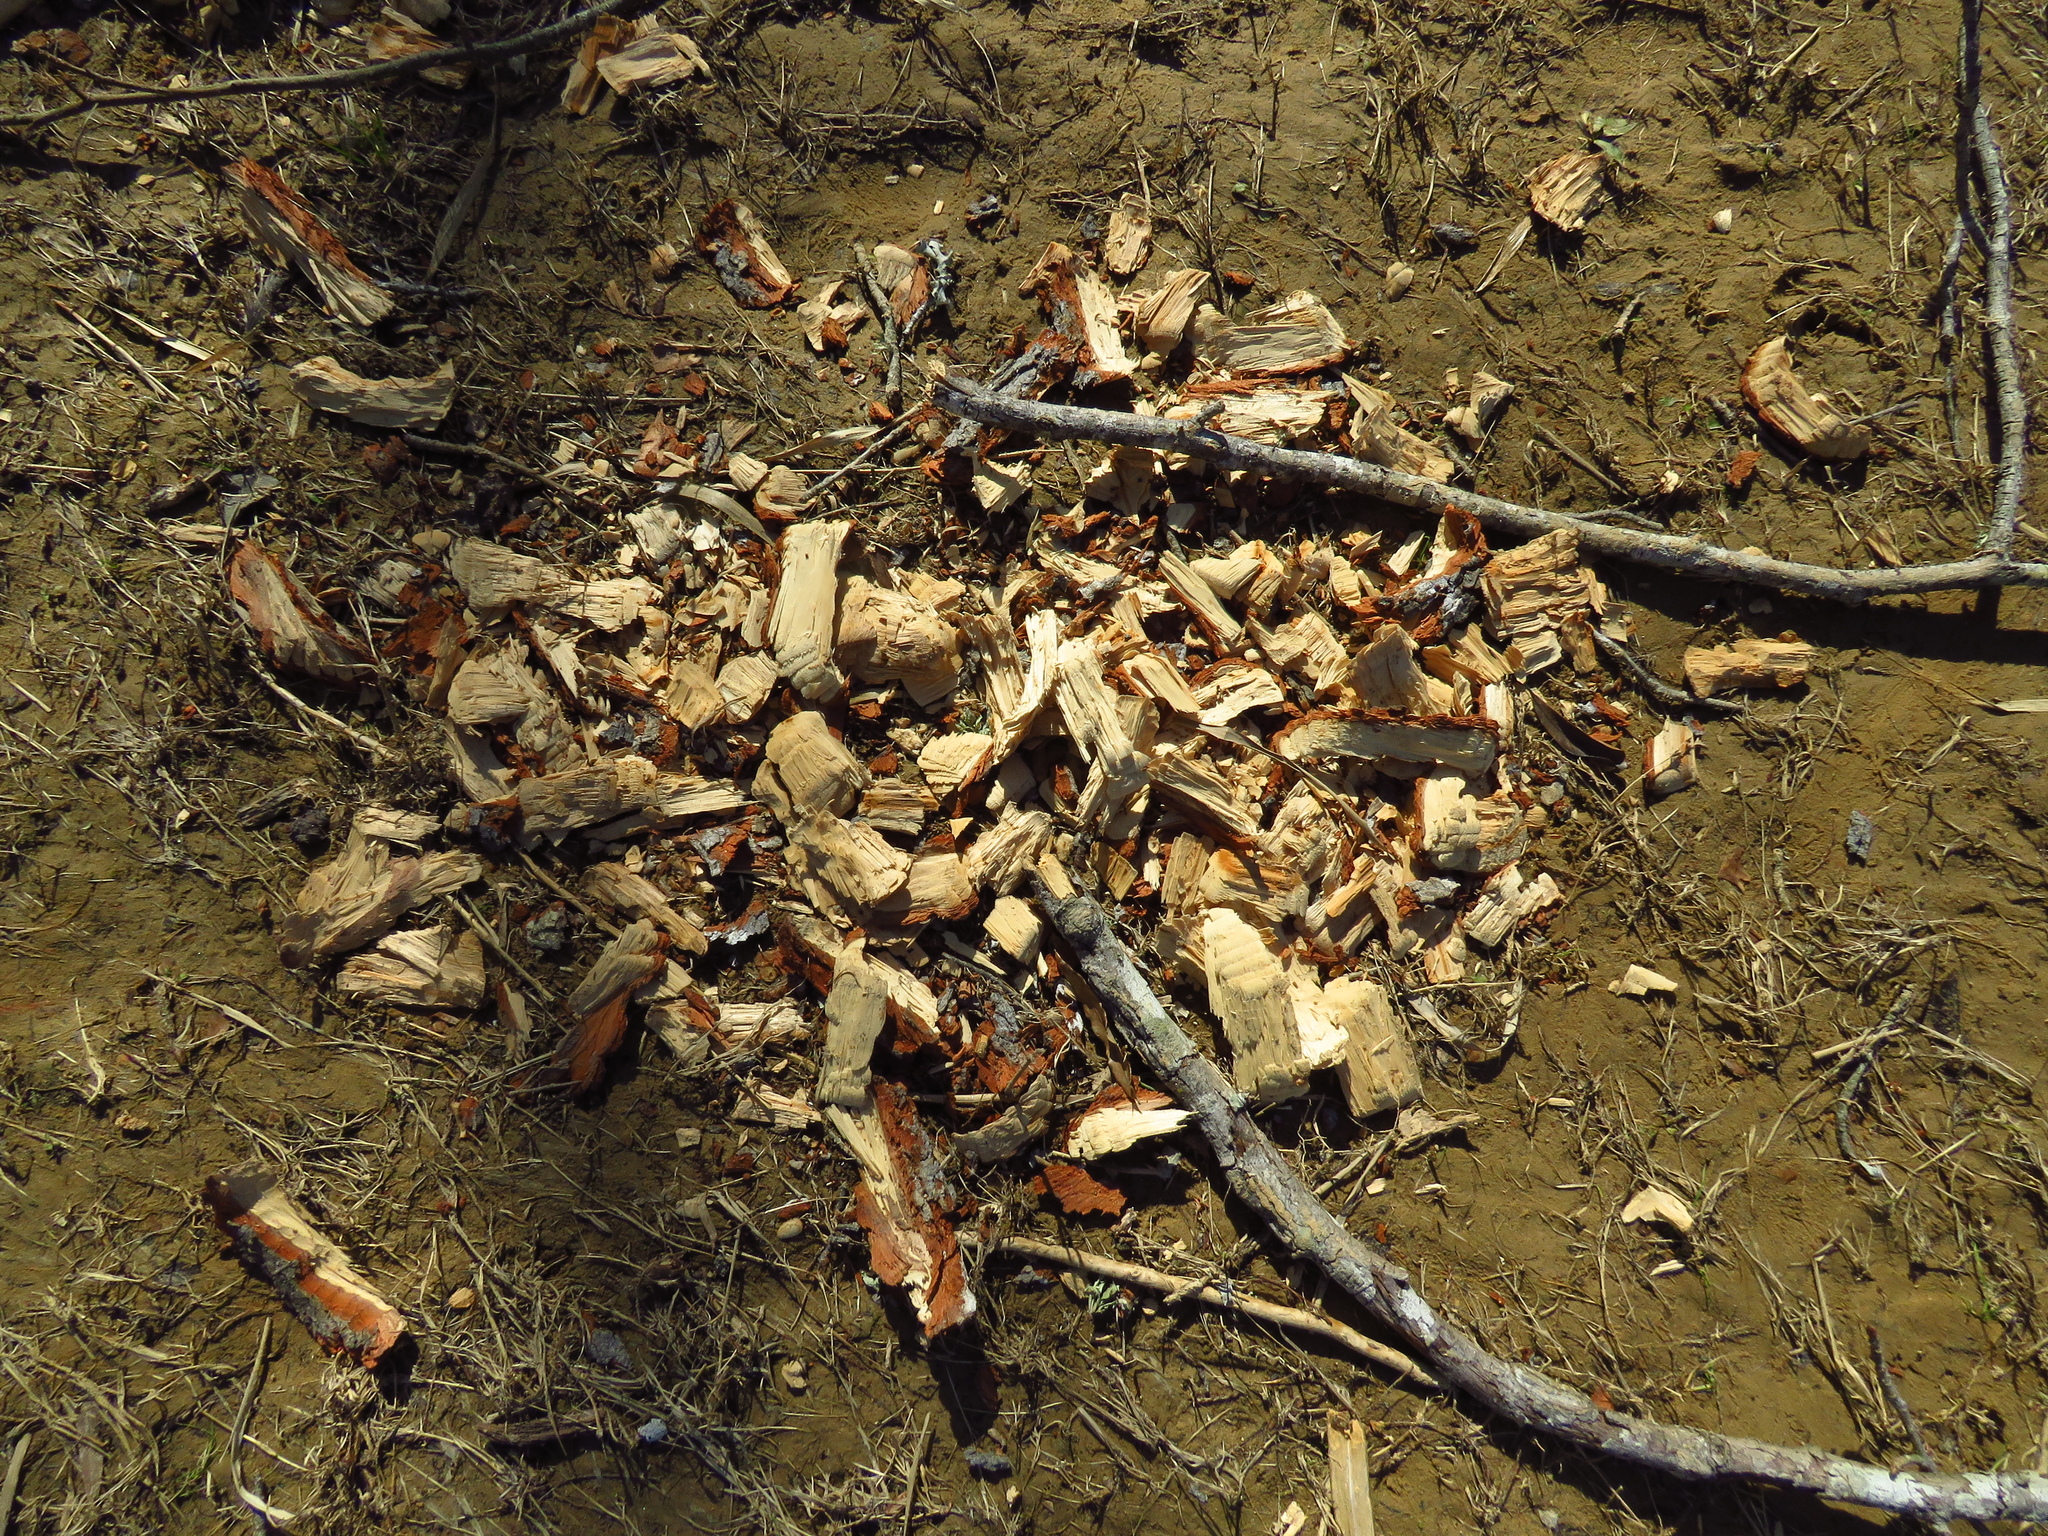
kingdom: Animalia
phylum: Chordata
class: Mammalia
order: Rodentia
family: Castoridae
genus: Castor
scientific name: Castor canadensis
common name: American beaver
